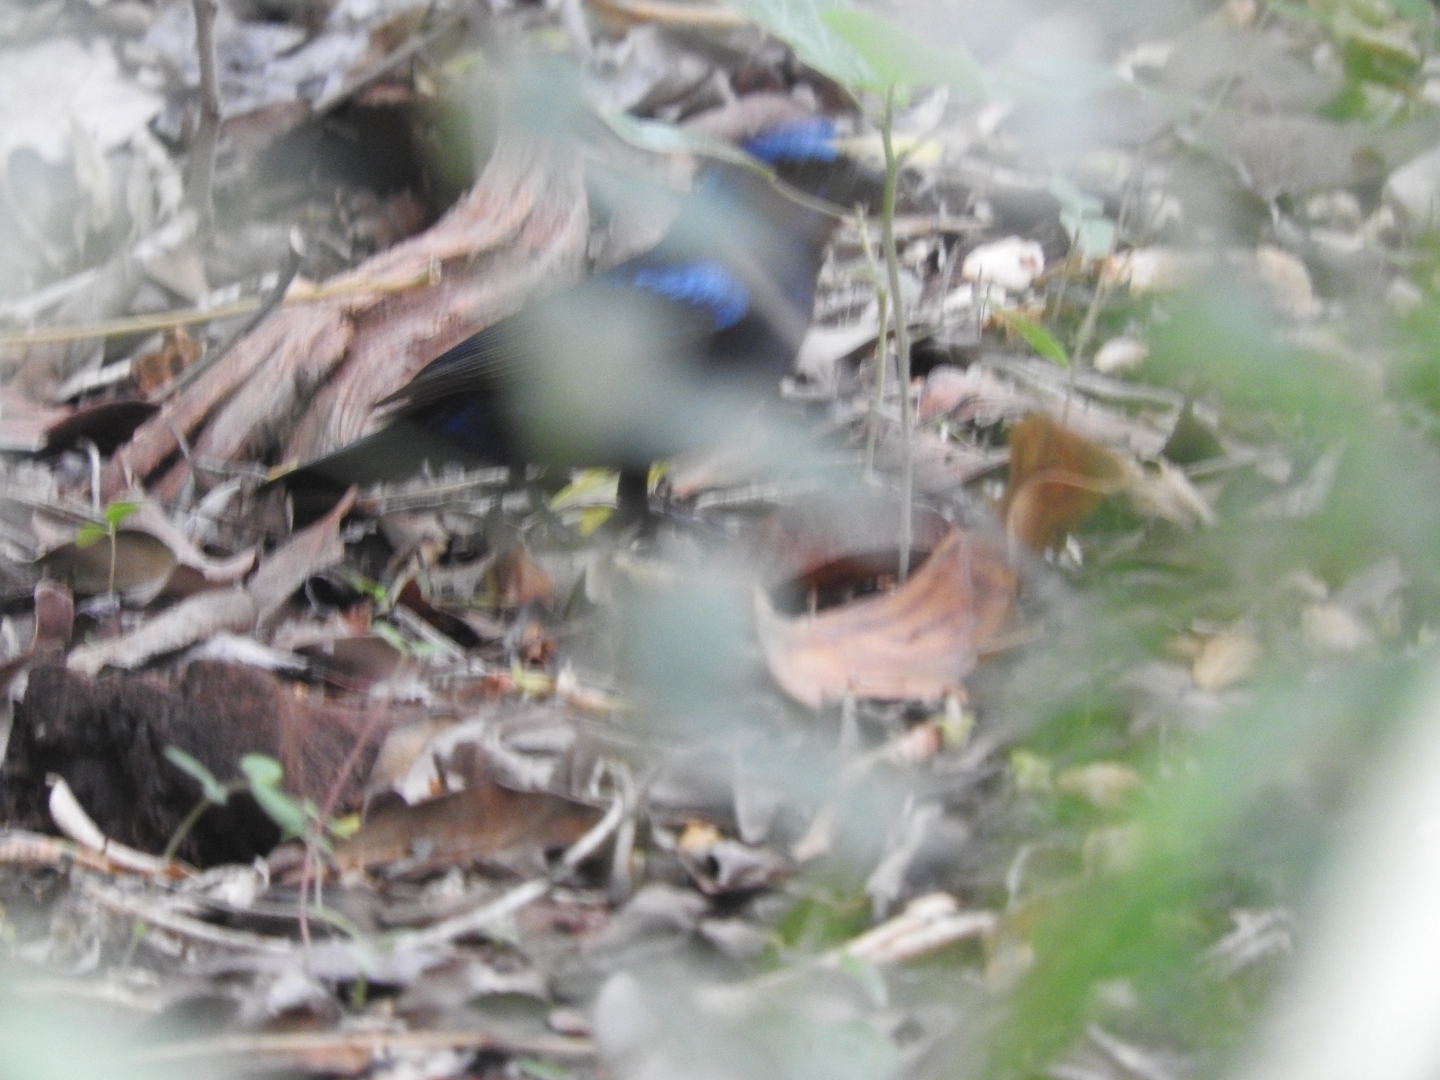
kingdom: Animalia
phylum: Chordata
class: Aves
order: Passeriformes
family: Cardinalidae
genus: Cyanocompsa
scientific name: Cyanocompsa parellina
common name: Blue bunting
